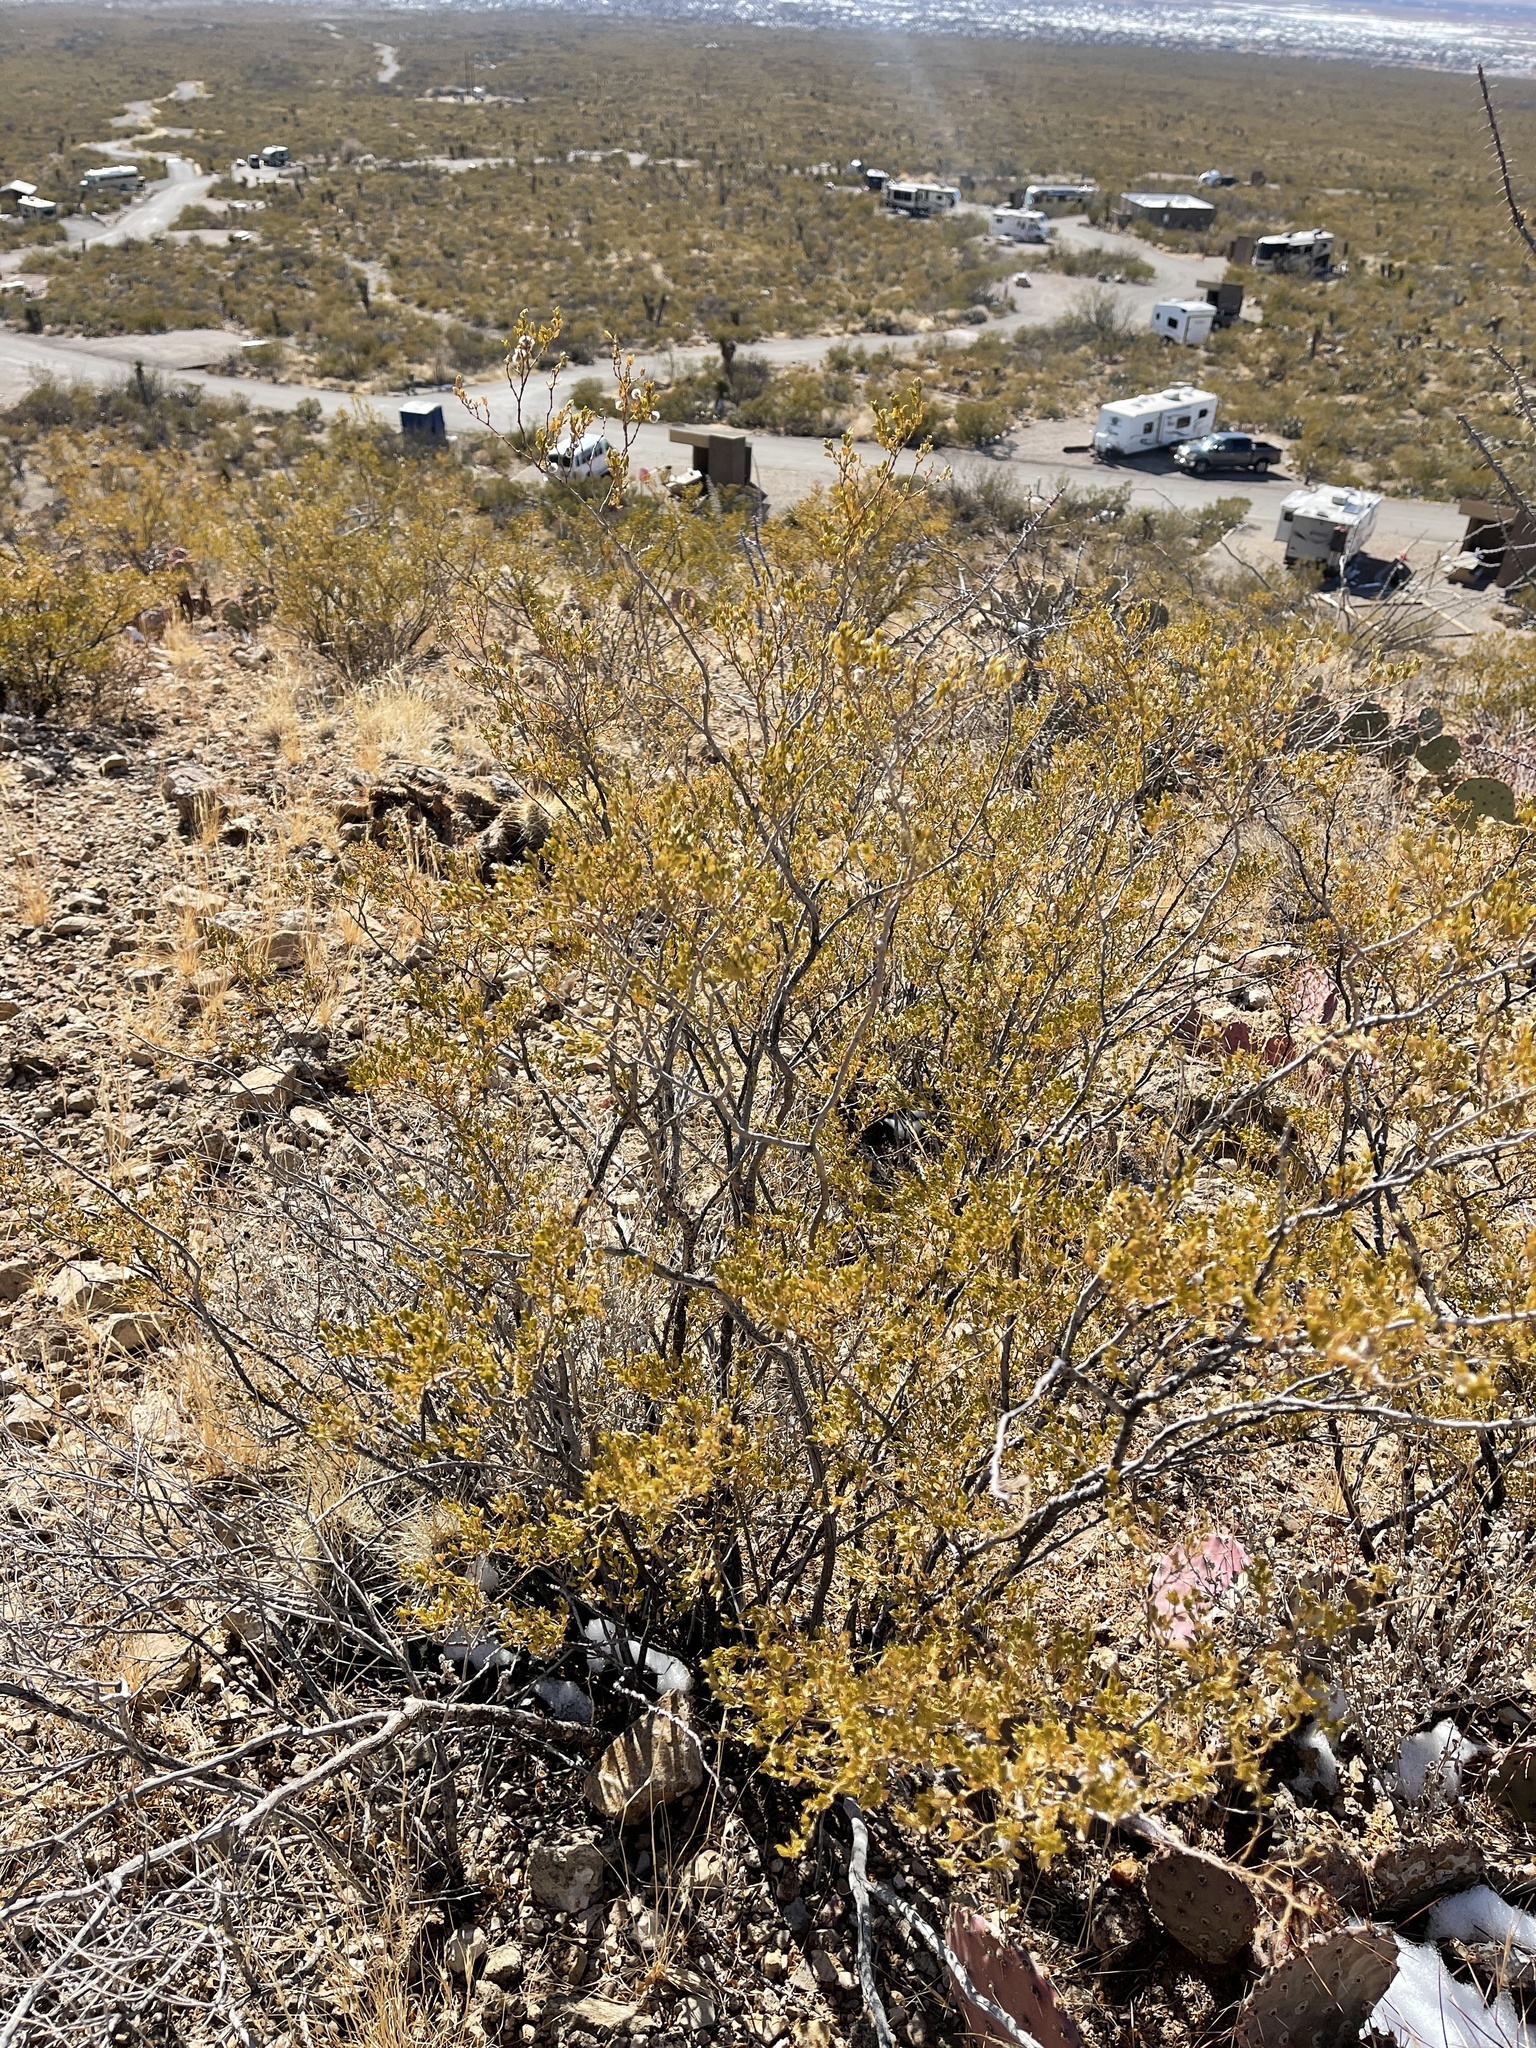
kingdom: Plantae
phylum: Tracheophyta
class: Magnoliopsida
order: Zygophyllales
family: Zygophyllaceae
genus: Larrea
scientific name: Larrea tridentata
